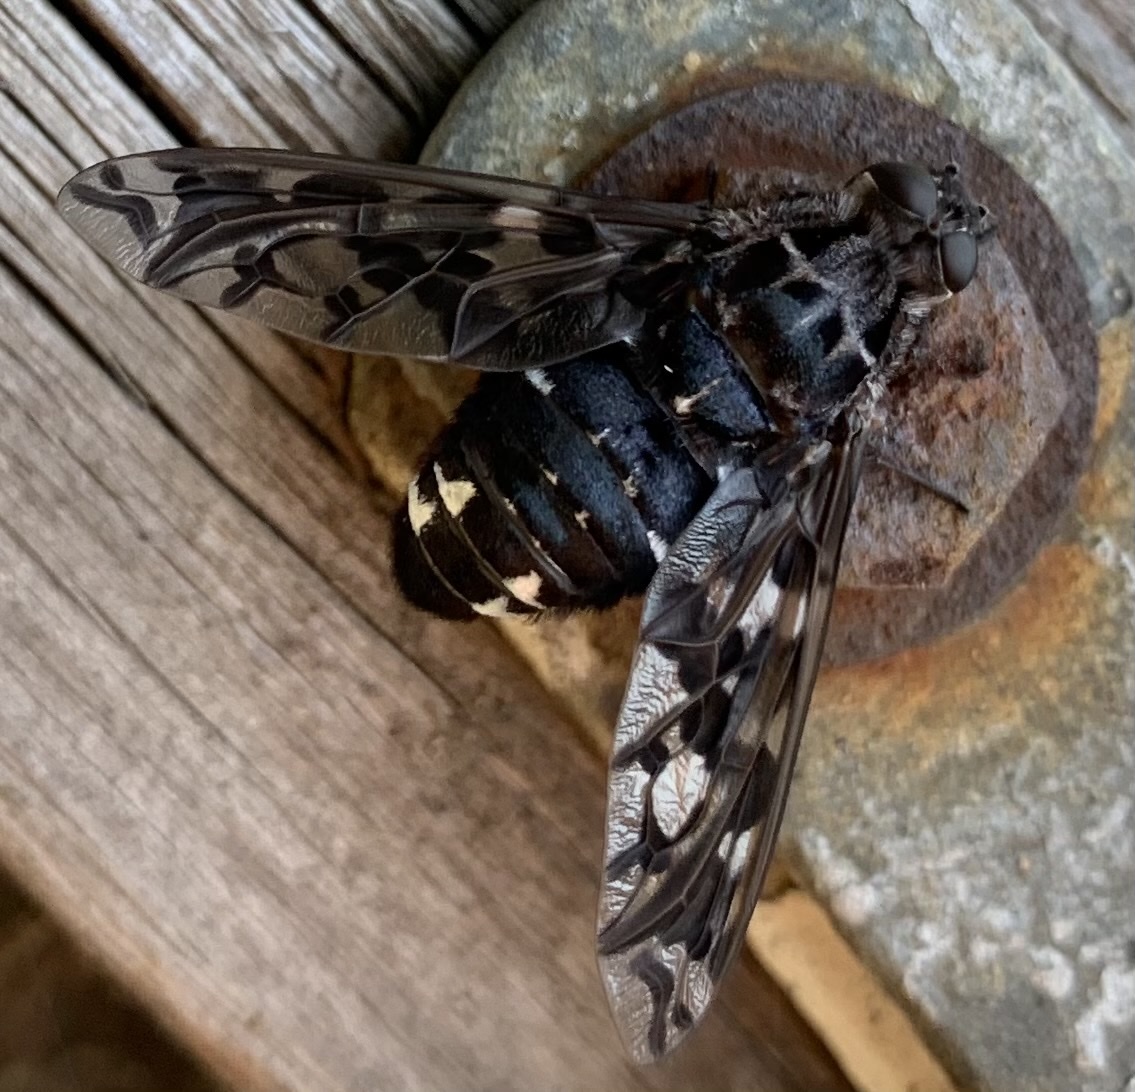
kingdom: Animalia
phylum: Arthropoda
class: Insecta
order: Diptera
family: Bombyliidae
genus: Xenox
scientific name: Xenox tigrinus
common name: Tiger bee fly
